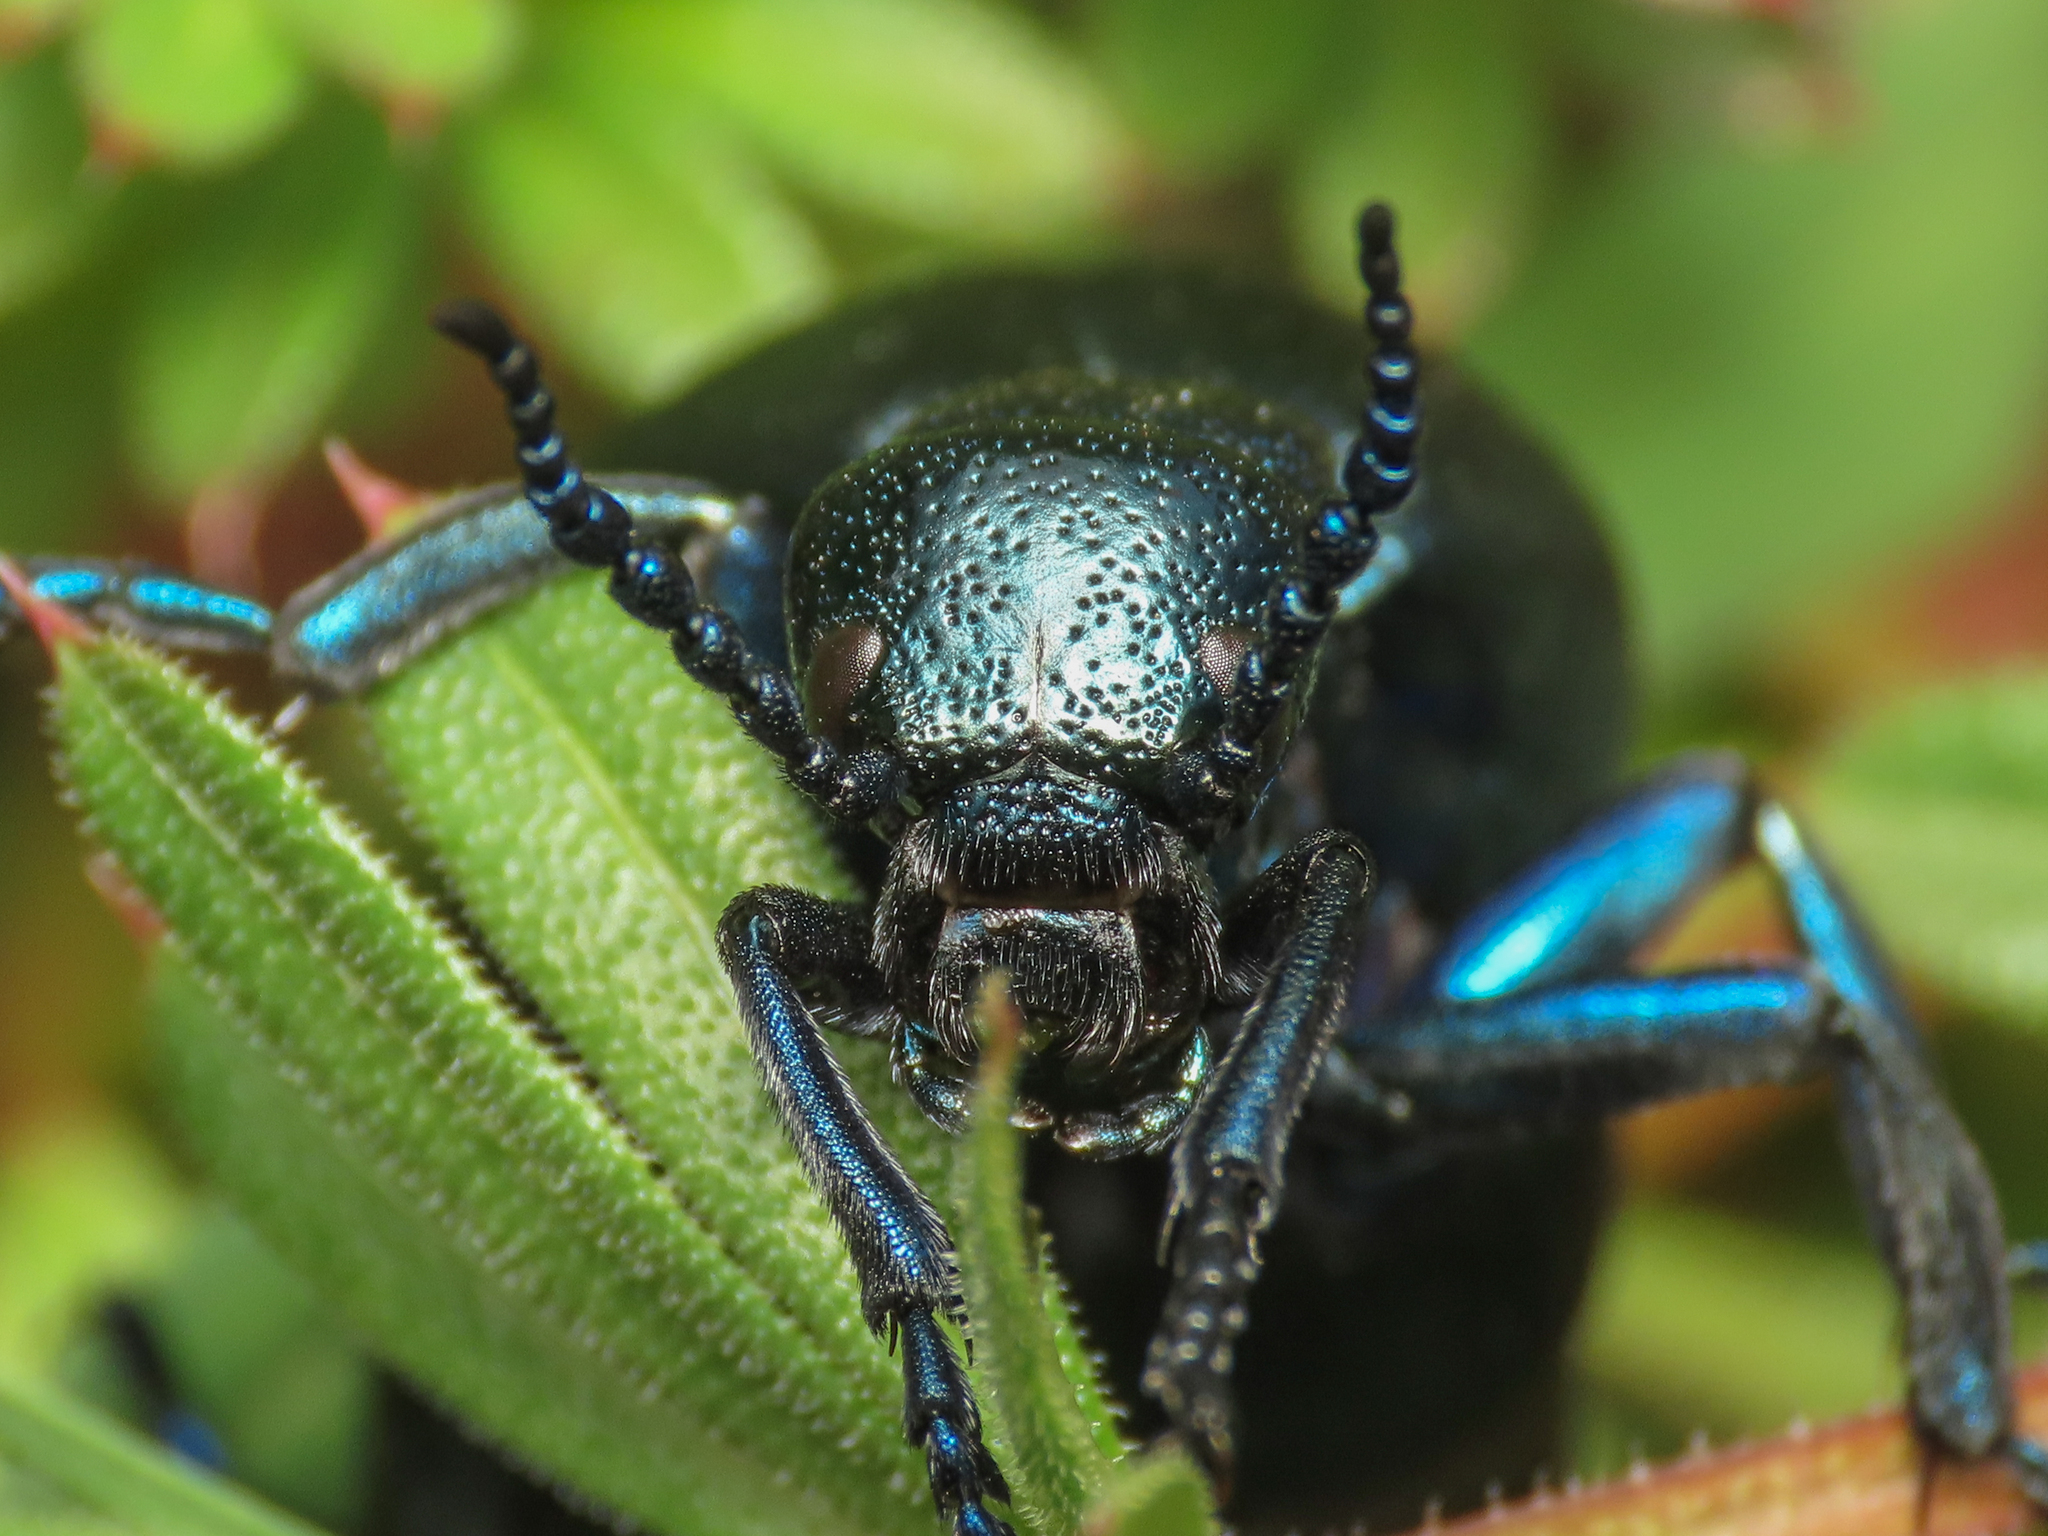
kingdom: Animalia
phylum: Arthropoda
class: Insecta
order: Coleoptera
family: Meloidae
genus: Meloe
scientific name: Meloe proscarabaeus
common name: Black oil-beetle
